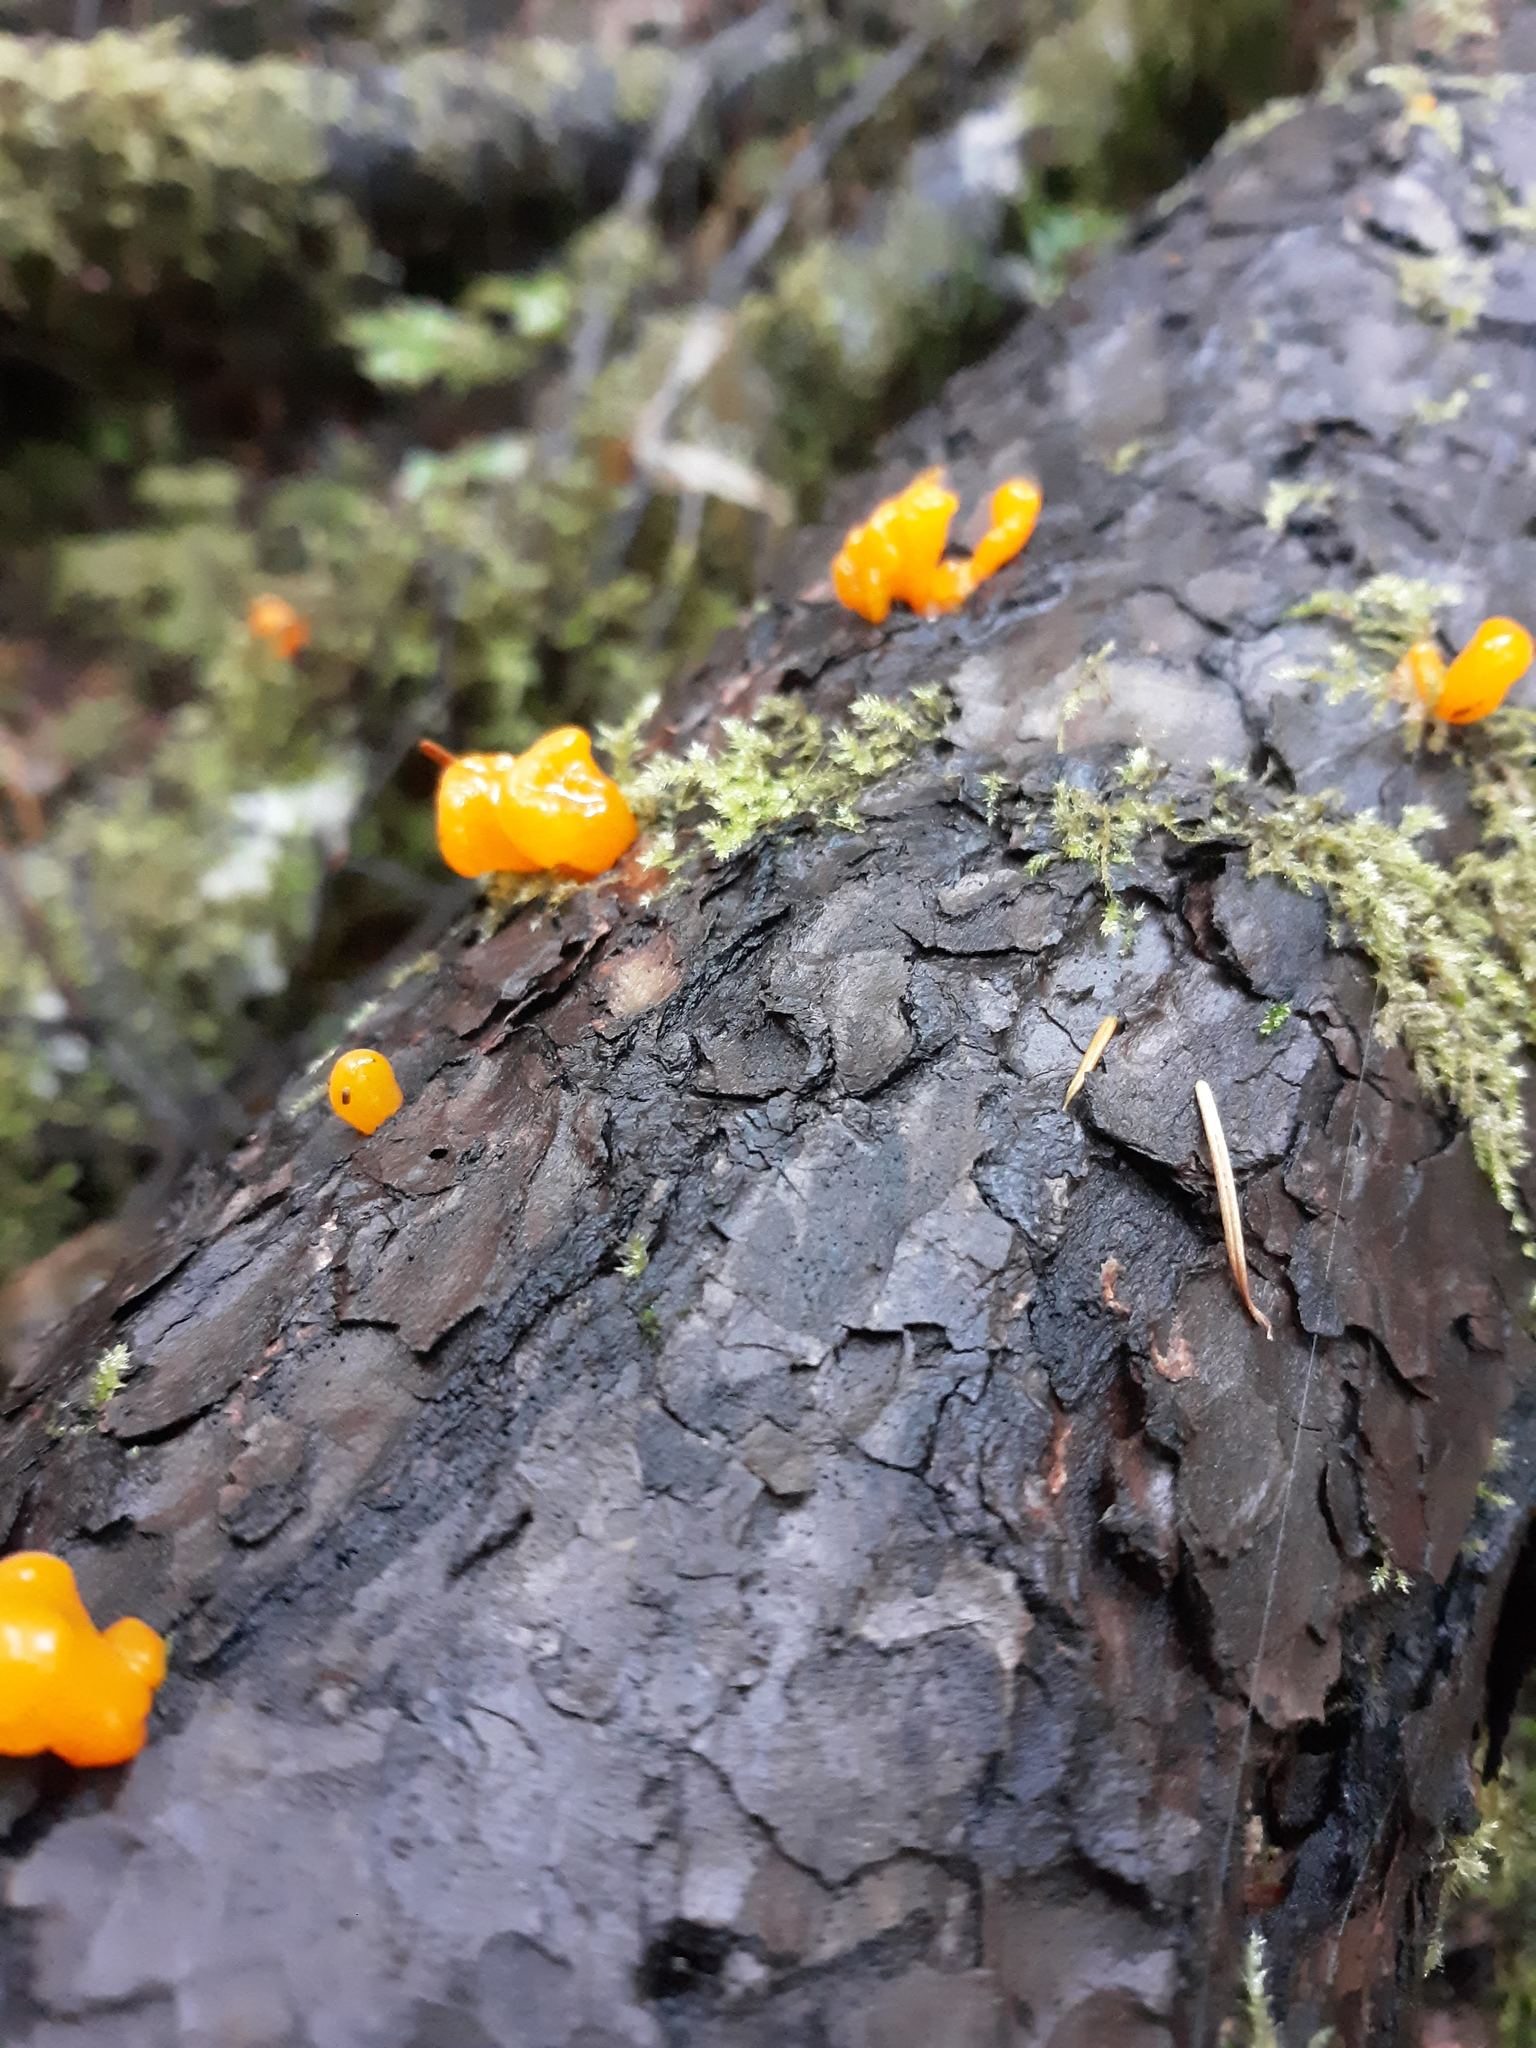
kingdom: Fungi
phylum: Basidiomycota
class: Dacrymycetes
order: Dacrymycetales
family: Dacrymycetaceae
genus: Dacrymyces
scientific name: Dacrymyces chrysospermus
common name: Orange jelly spot
